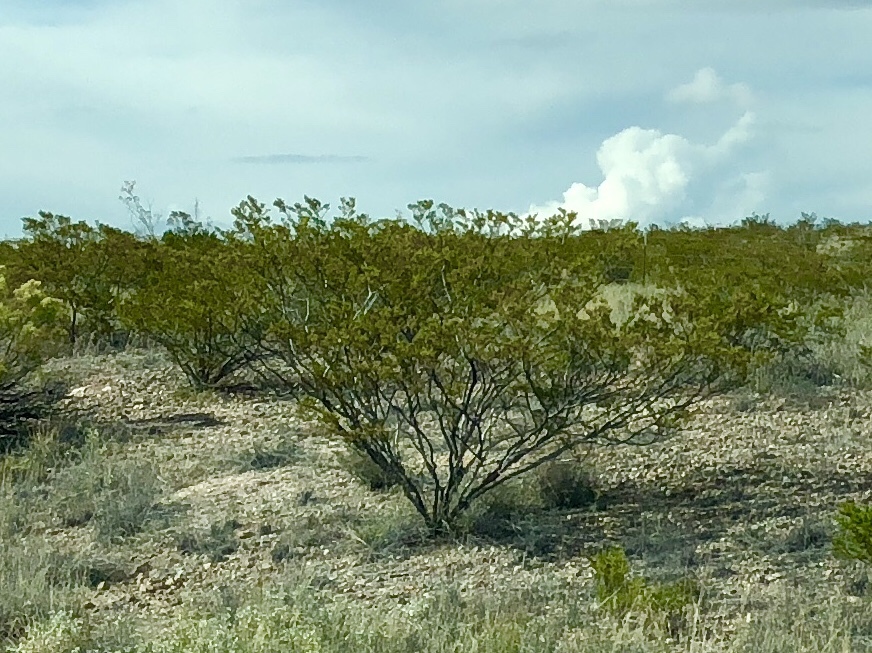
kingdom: Plantae
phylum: Tracheophyta
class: Magnoliopsida
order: Zygophyllales
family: Zygophyllaceae
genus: Larrea
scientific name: Larrea tridentata
